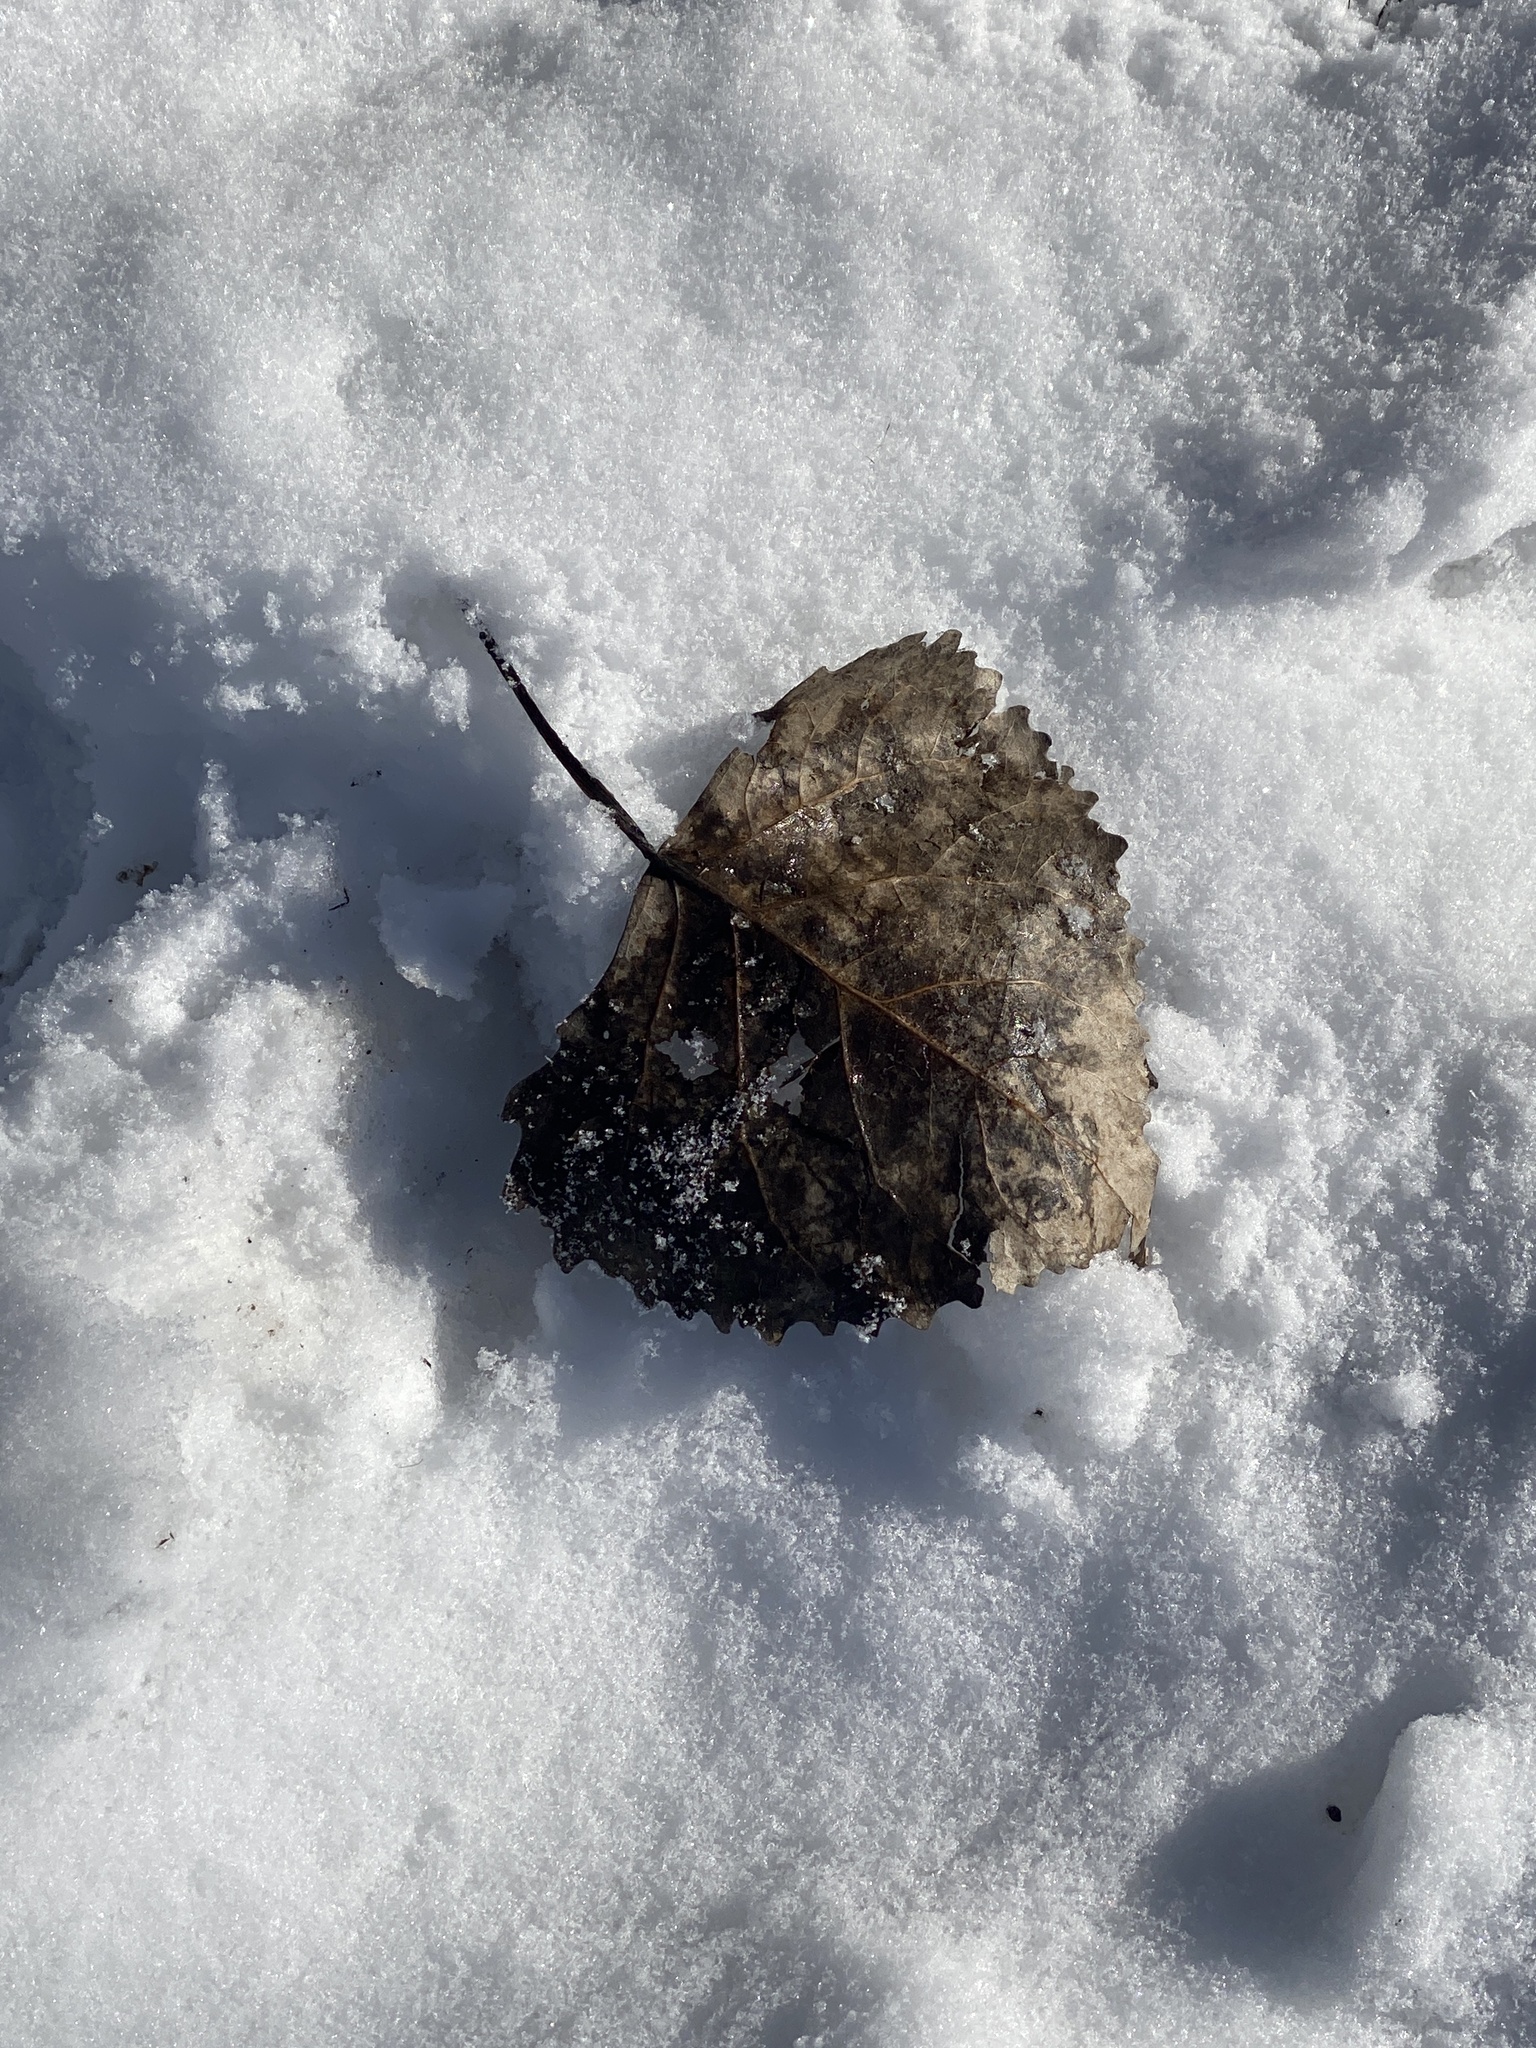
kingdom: Plantae
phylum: Tracheophyta
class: Magnoliopsida
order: Malpighiales
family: Salicaceae
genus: Populus
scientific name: Populus deltoides
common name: Eastern cottonwood
